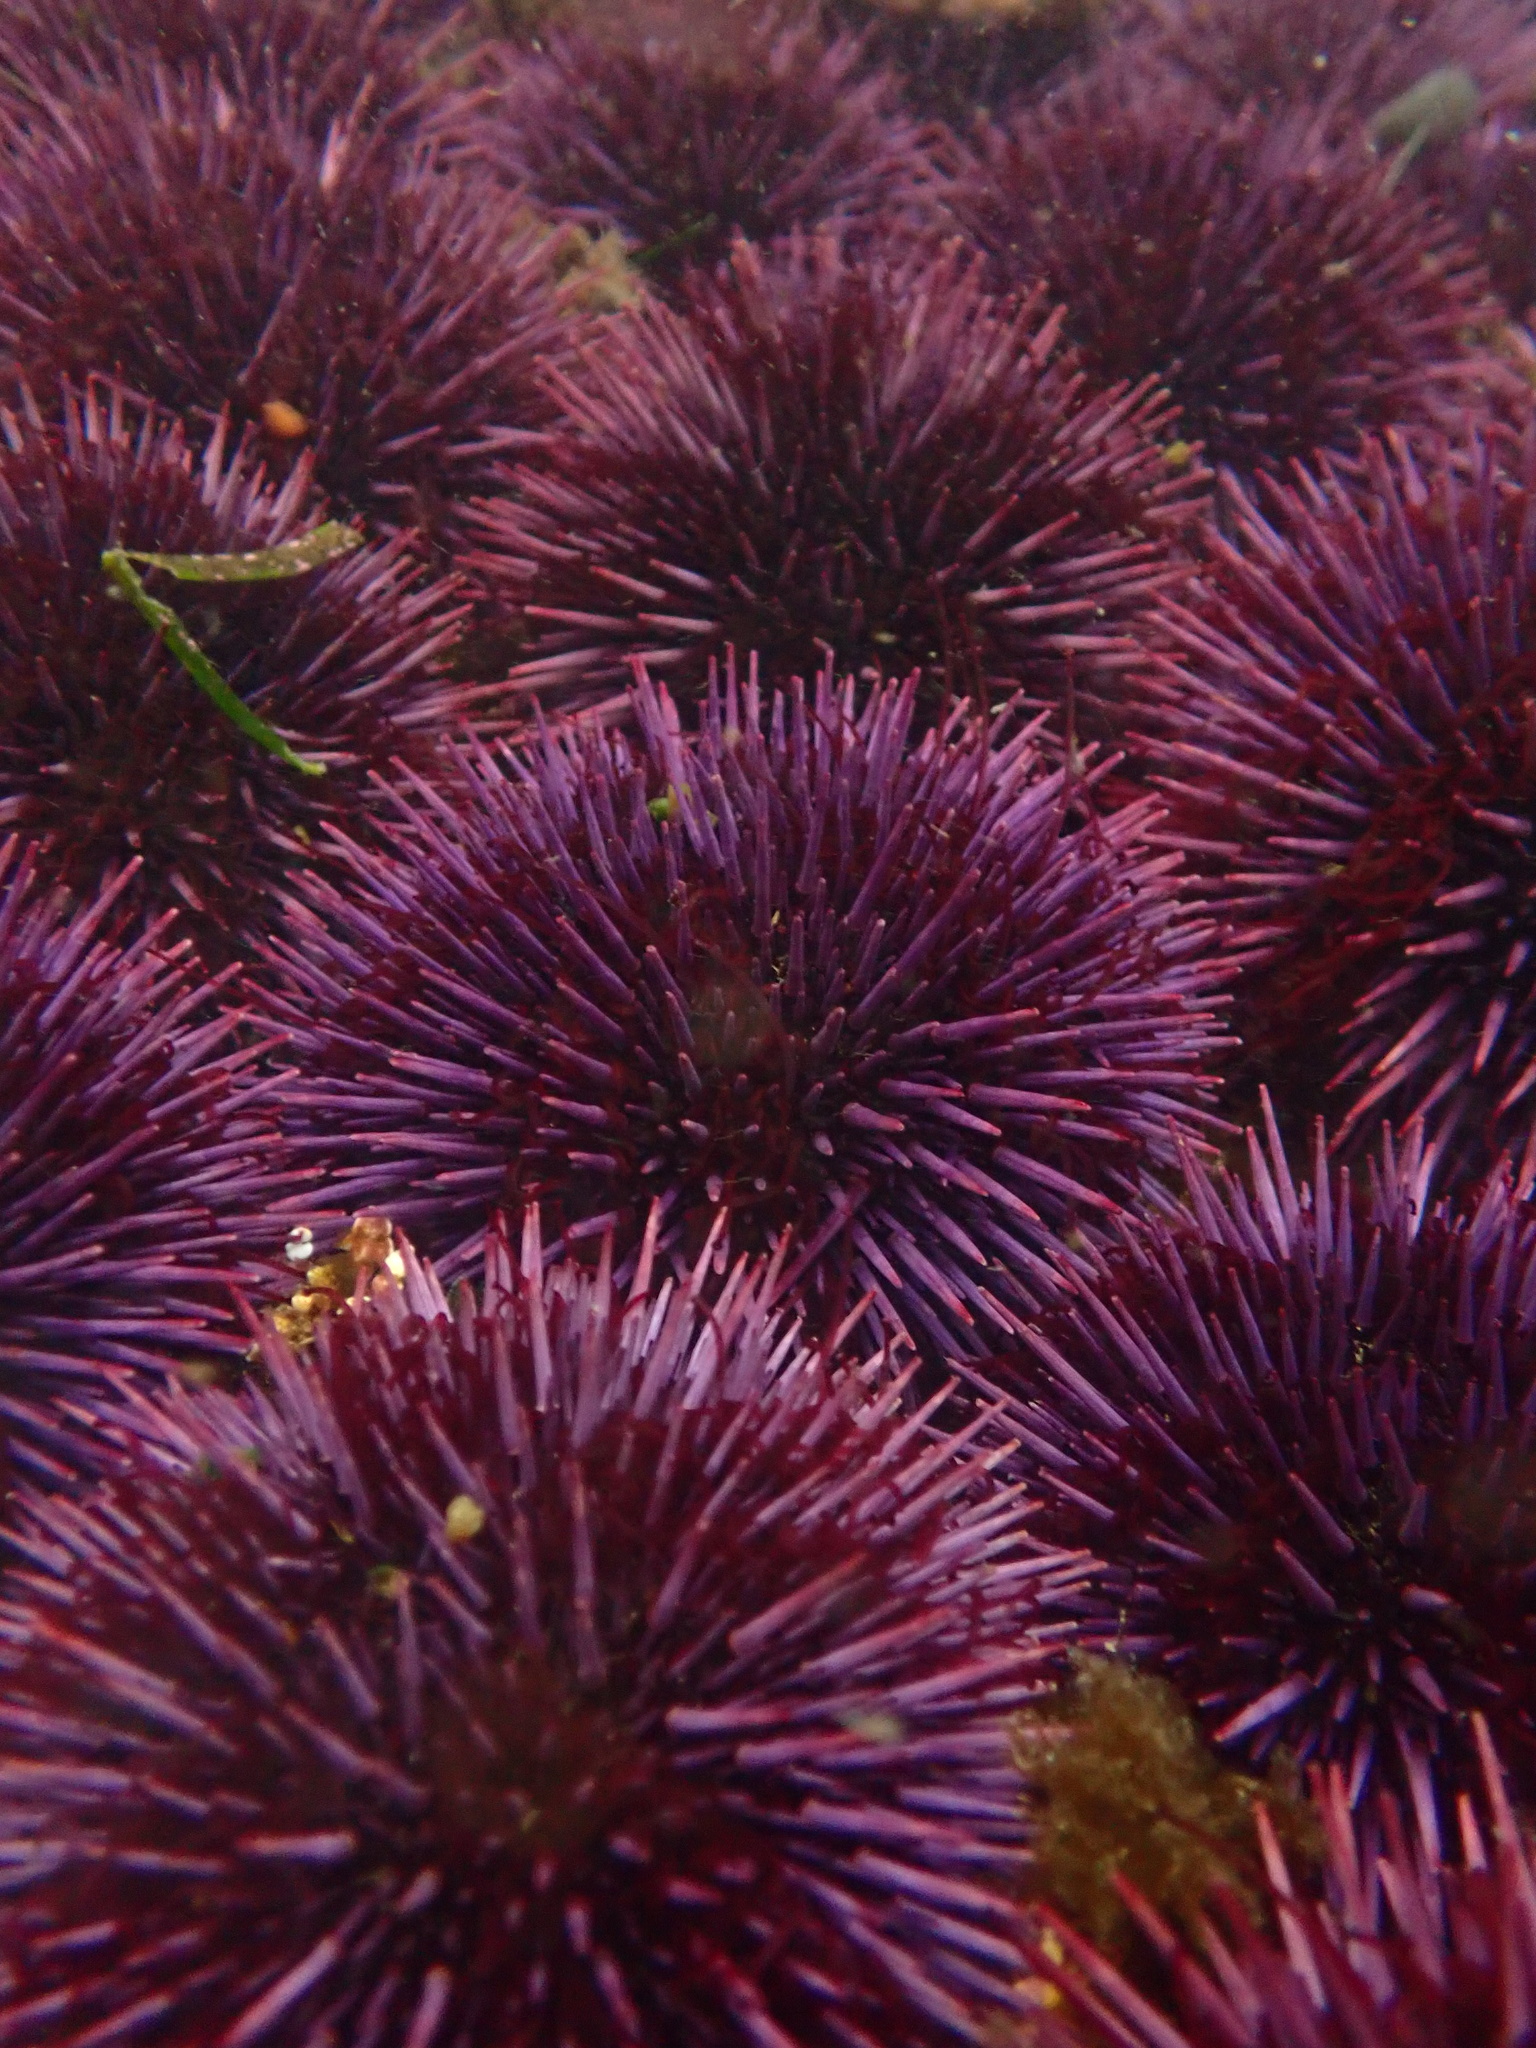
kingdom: Animalia
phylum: Echinodermata
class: Echinoidea
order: Camarodonta
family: Strongylocentrotidae
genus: Strongylocentrotus
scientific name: Strongylocentrotus purpuratus
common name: Purple sea urchin
